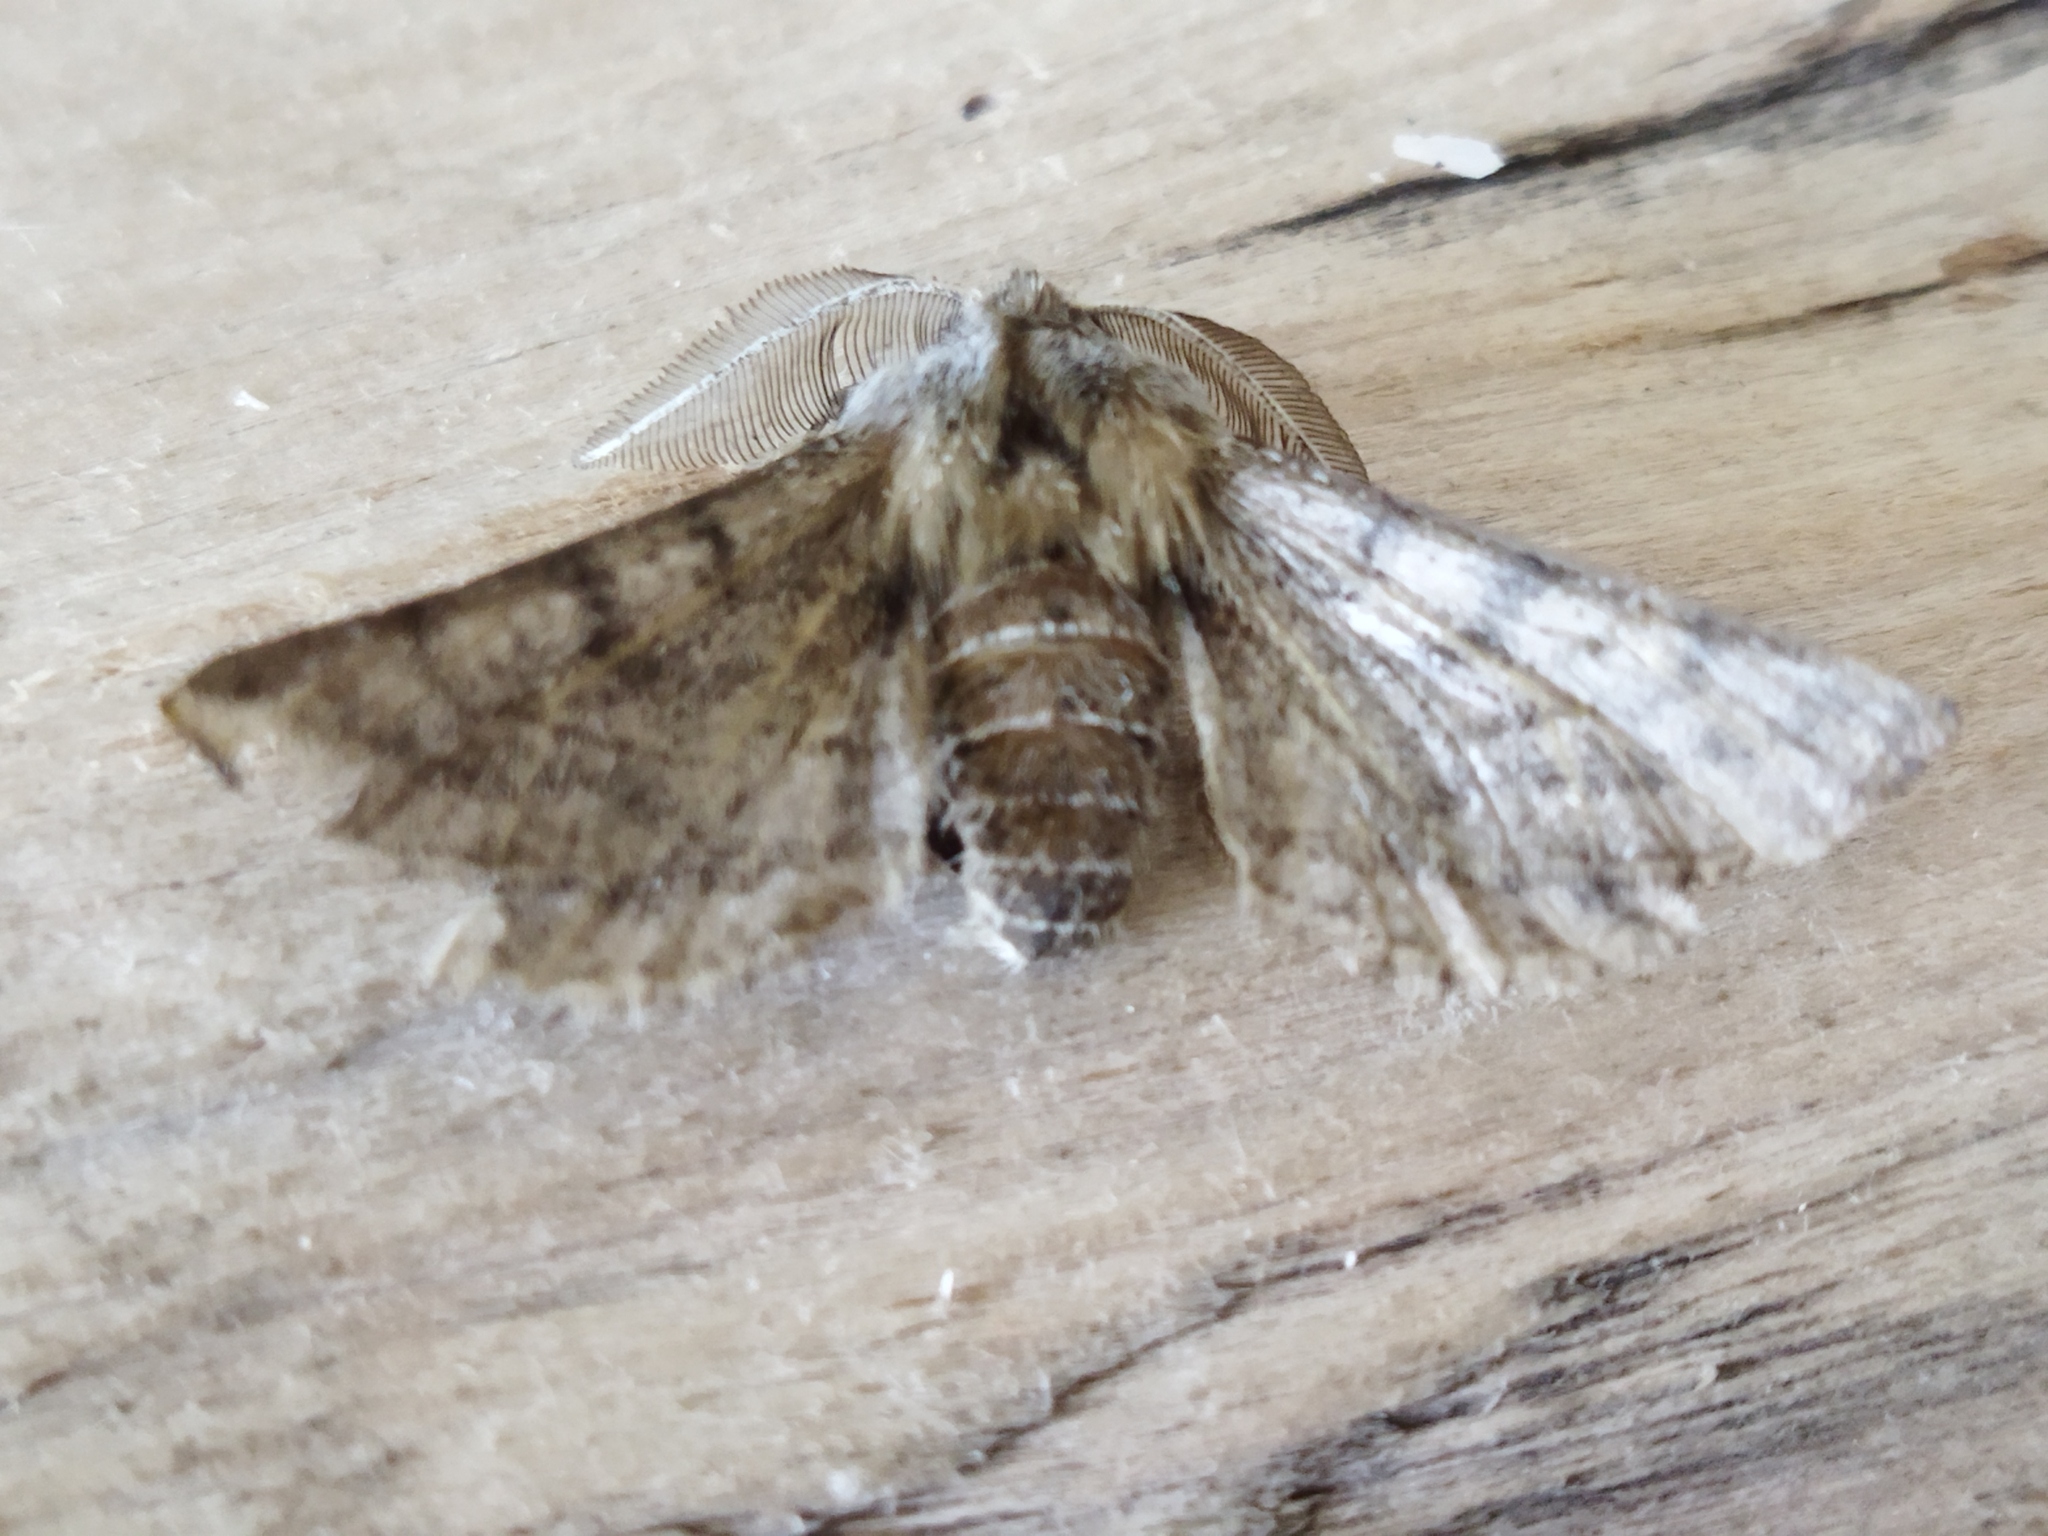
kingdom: Animalia
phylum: Arthropoda
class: Insecta
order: Lepidoptera
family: Geometridae
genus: Apochima
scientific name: Apochima flabellaria
